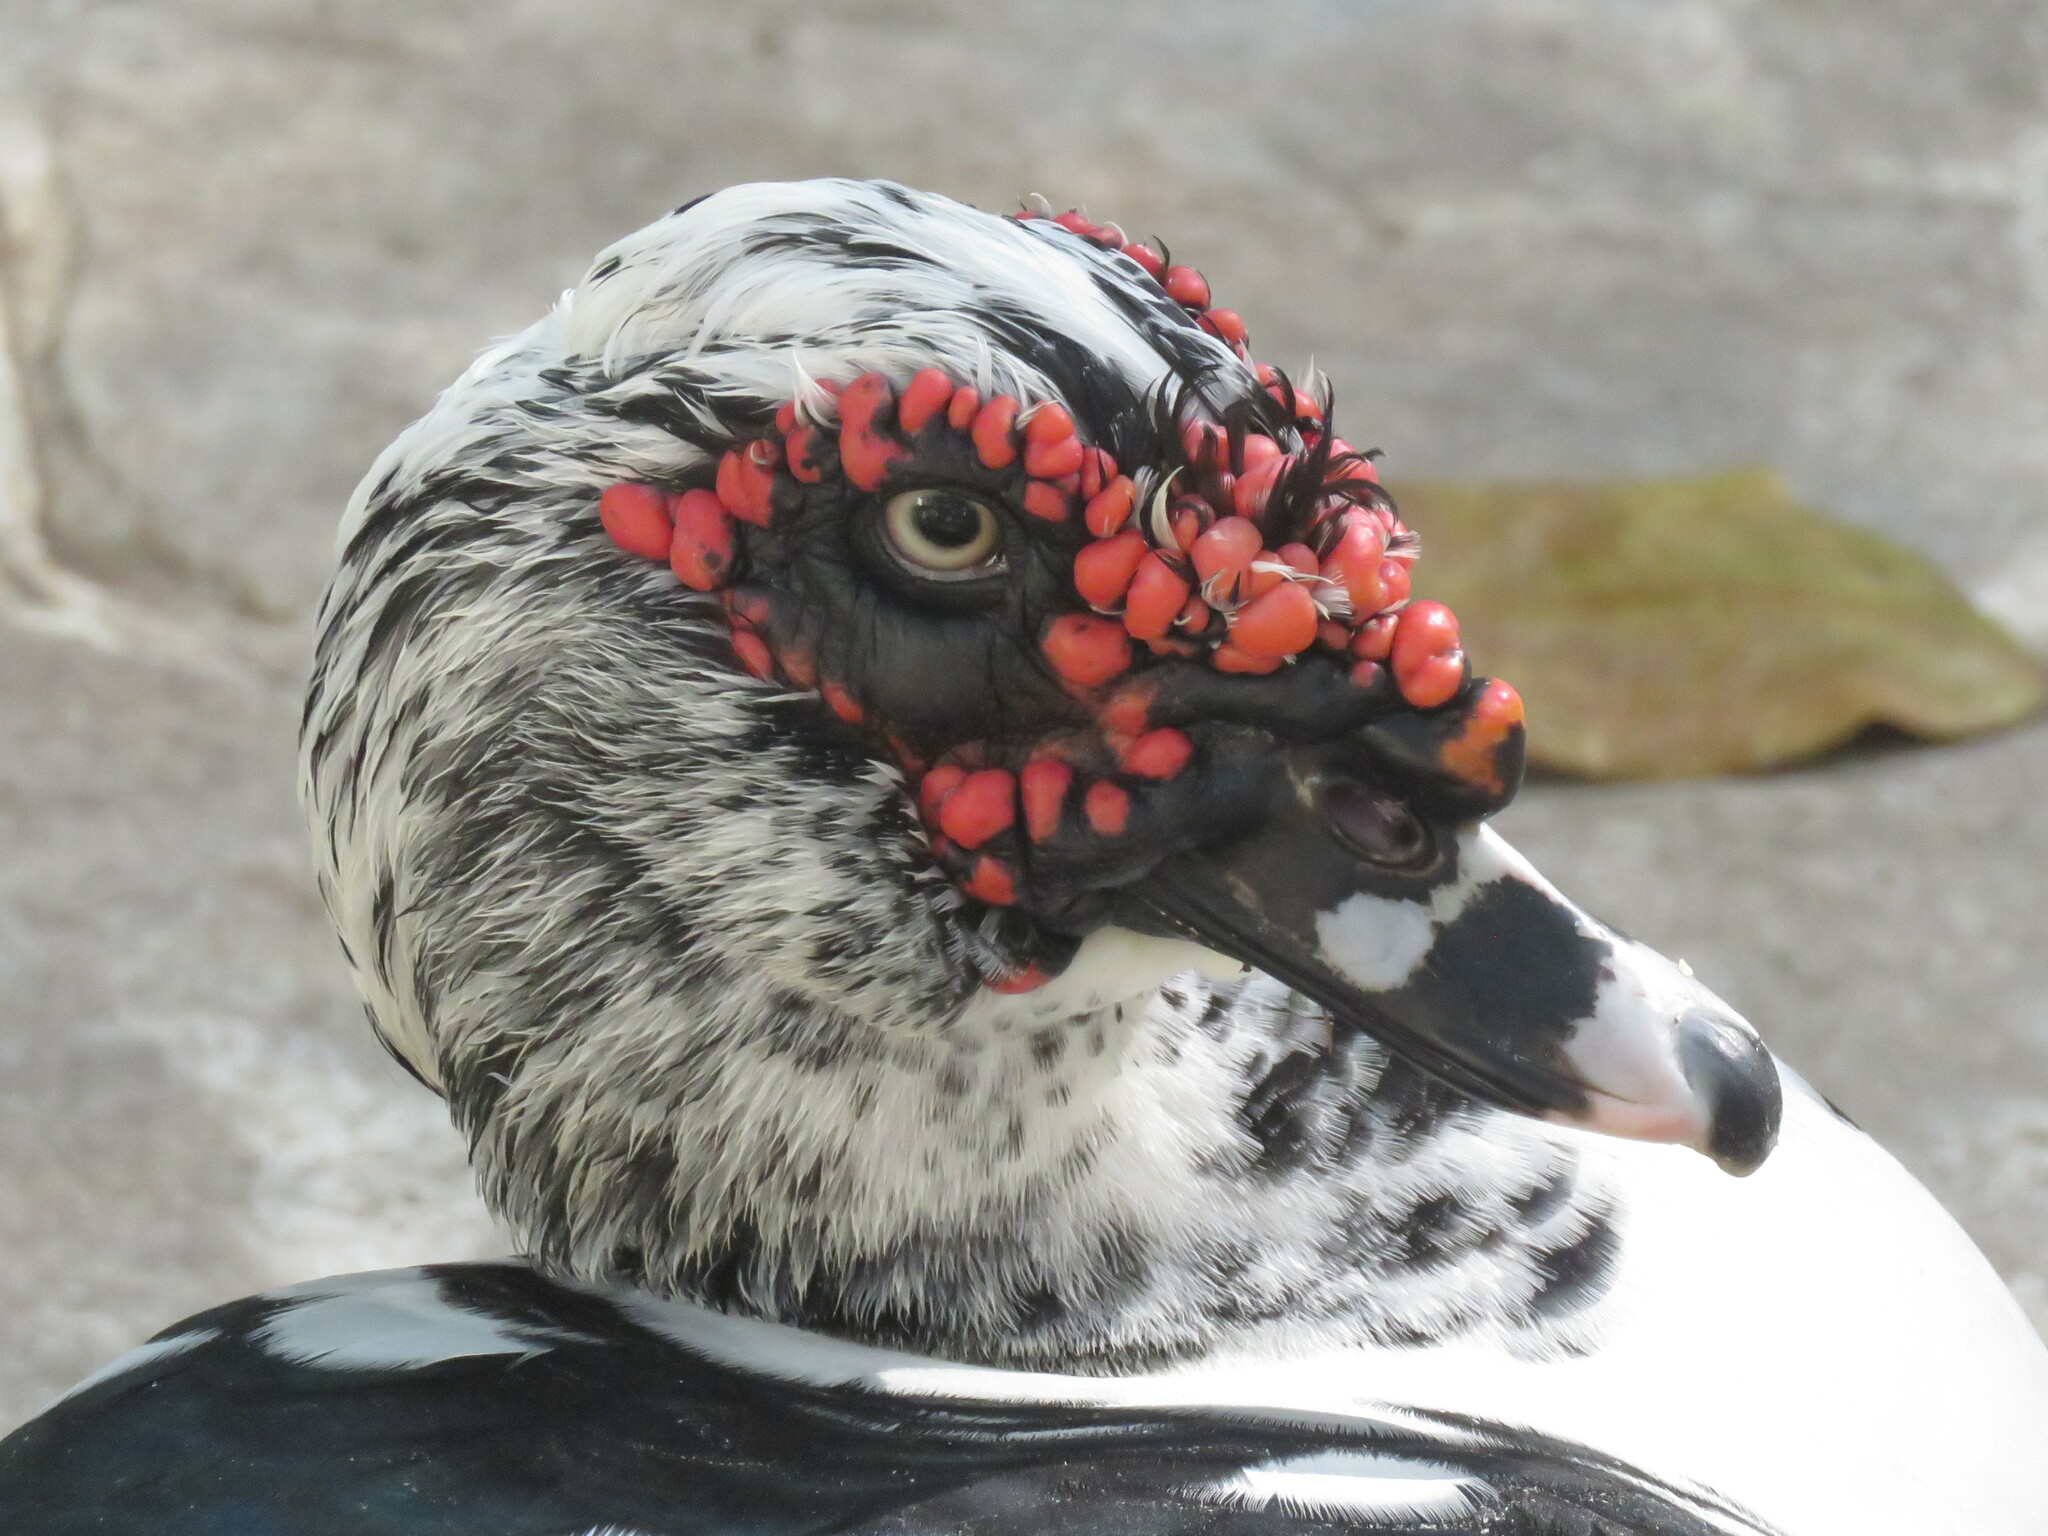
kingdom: Animalia
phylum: Chordata
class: Aves
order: Anseriformes
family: Anatidae
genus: Cairina
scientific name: Cairina moschata
